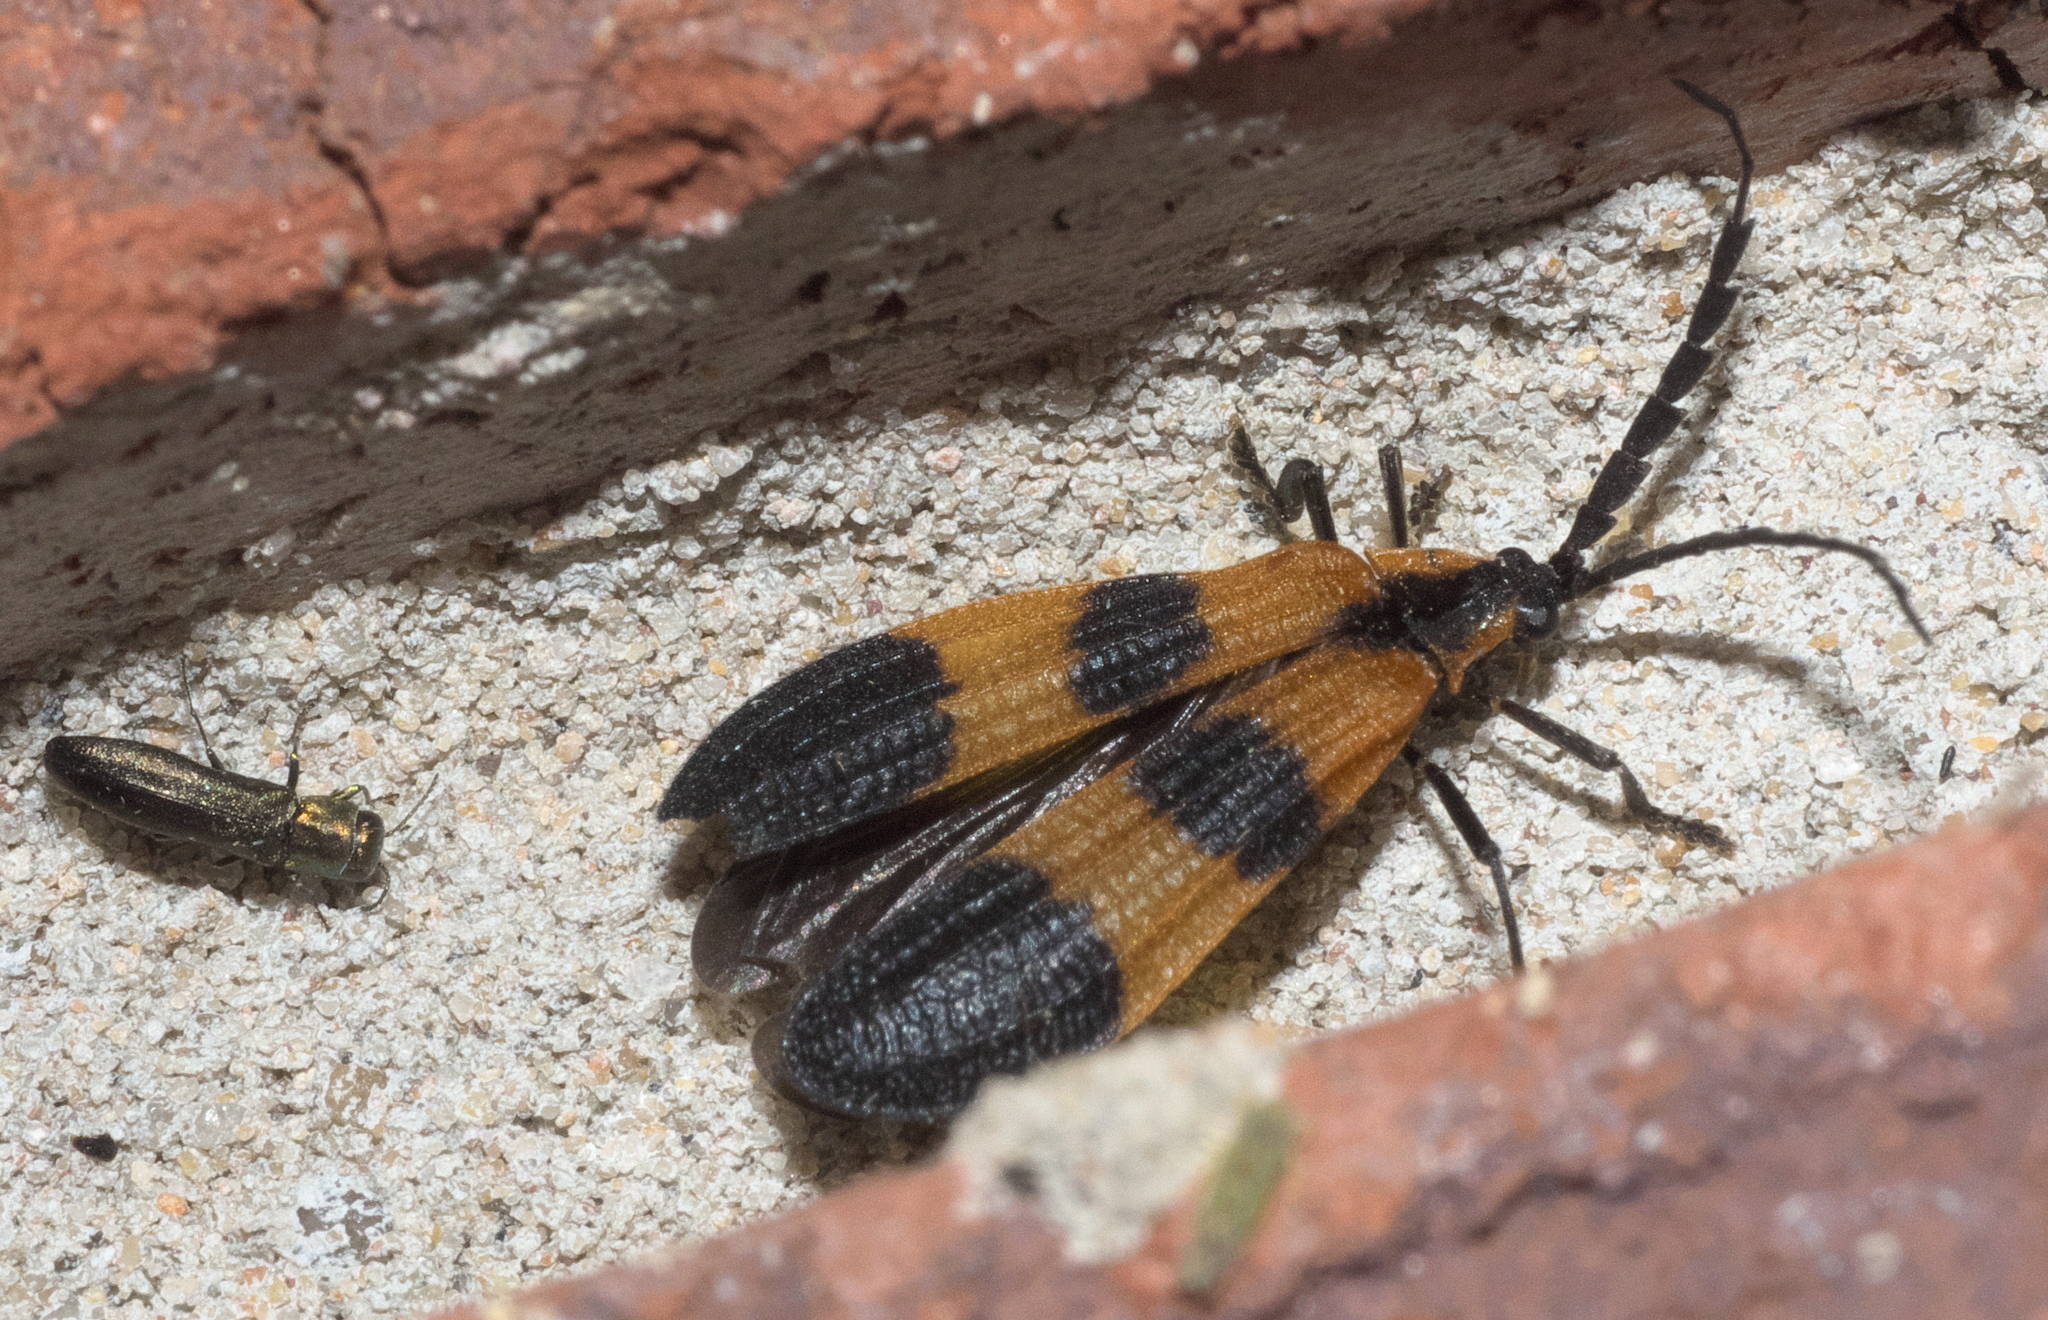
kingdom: Animalia
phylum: Arthropoda
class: Insecta
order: Coleoptera
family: Lycidae
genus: Calopteron
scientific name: Calopteron reticulatum
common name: Banded net-winged beetle
